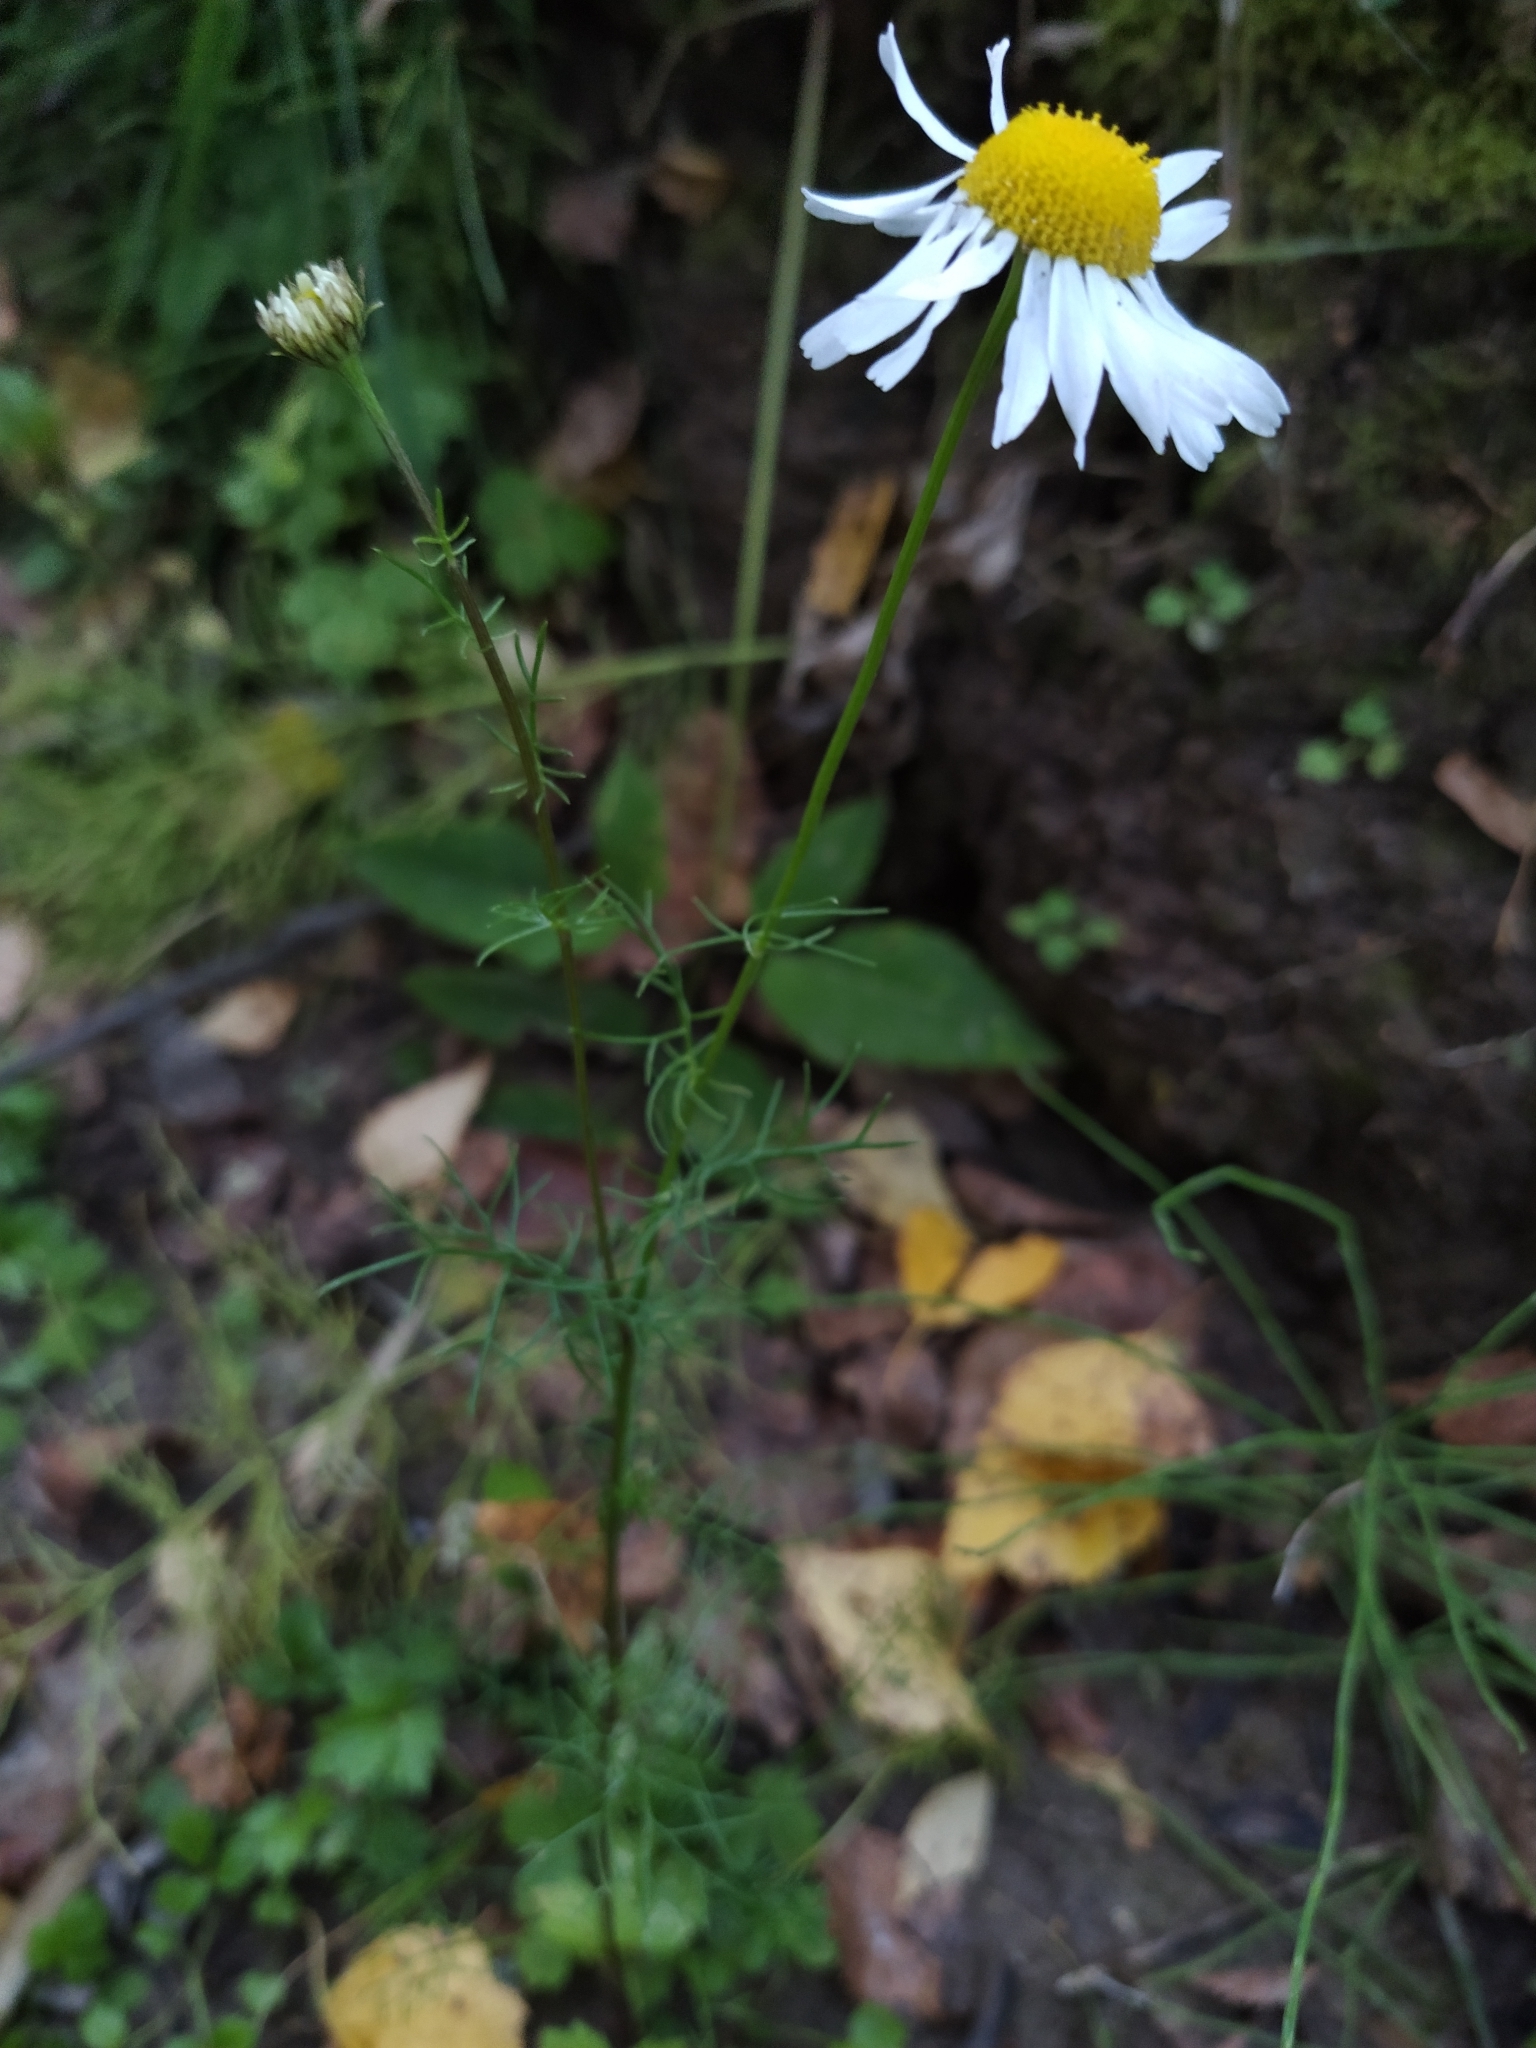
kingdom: Plantae
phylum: Tracheophyta
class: Magnoliopsida
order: Asterales
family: Asteraceae
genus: Tripleurospermum
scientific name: Tripleurospermum inodorum
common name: Scentless mayweed
